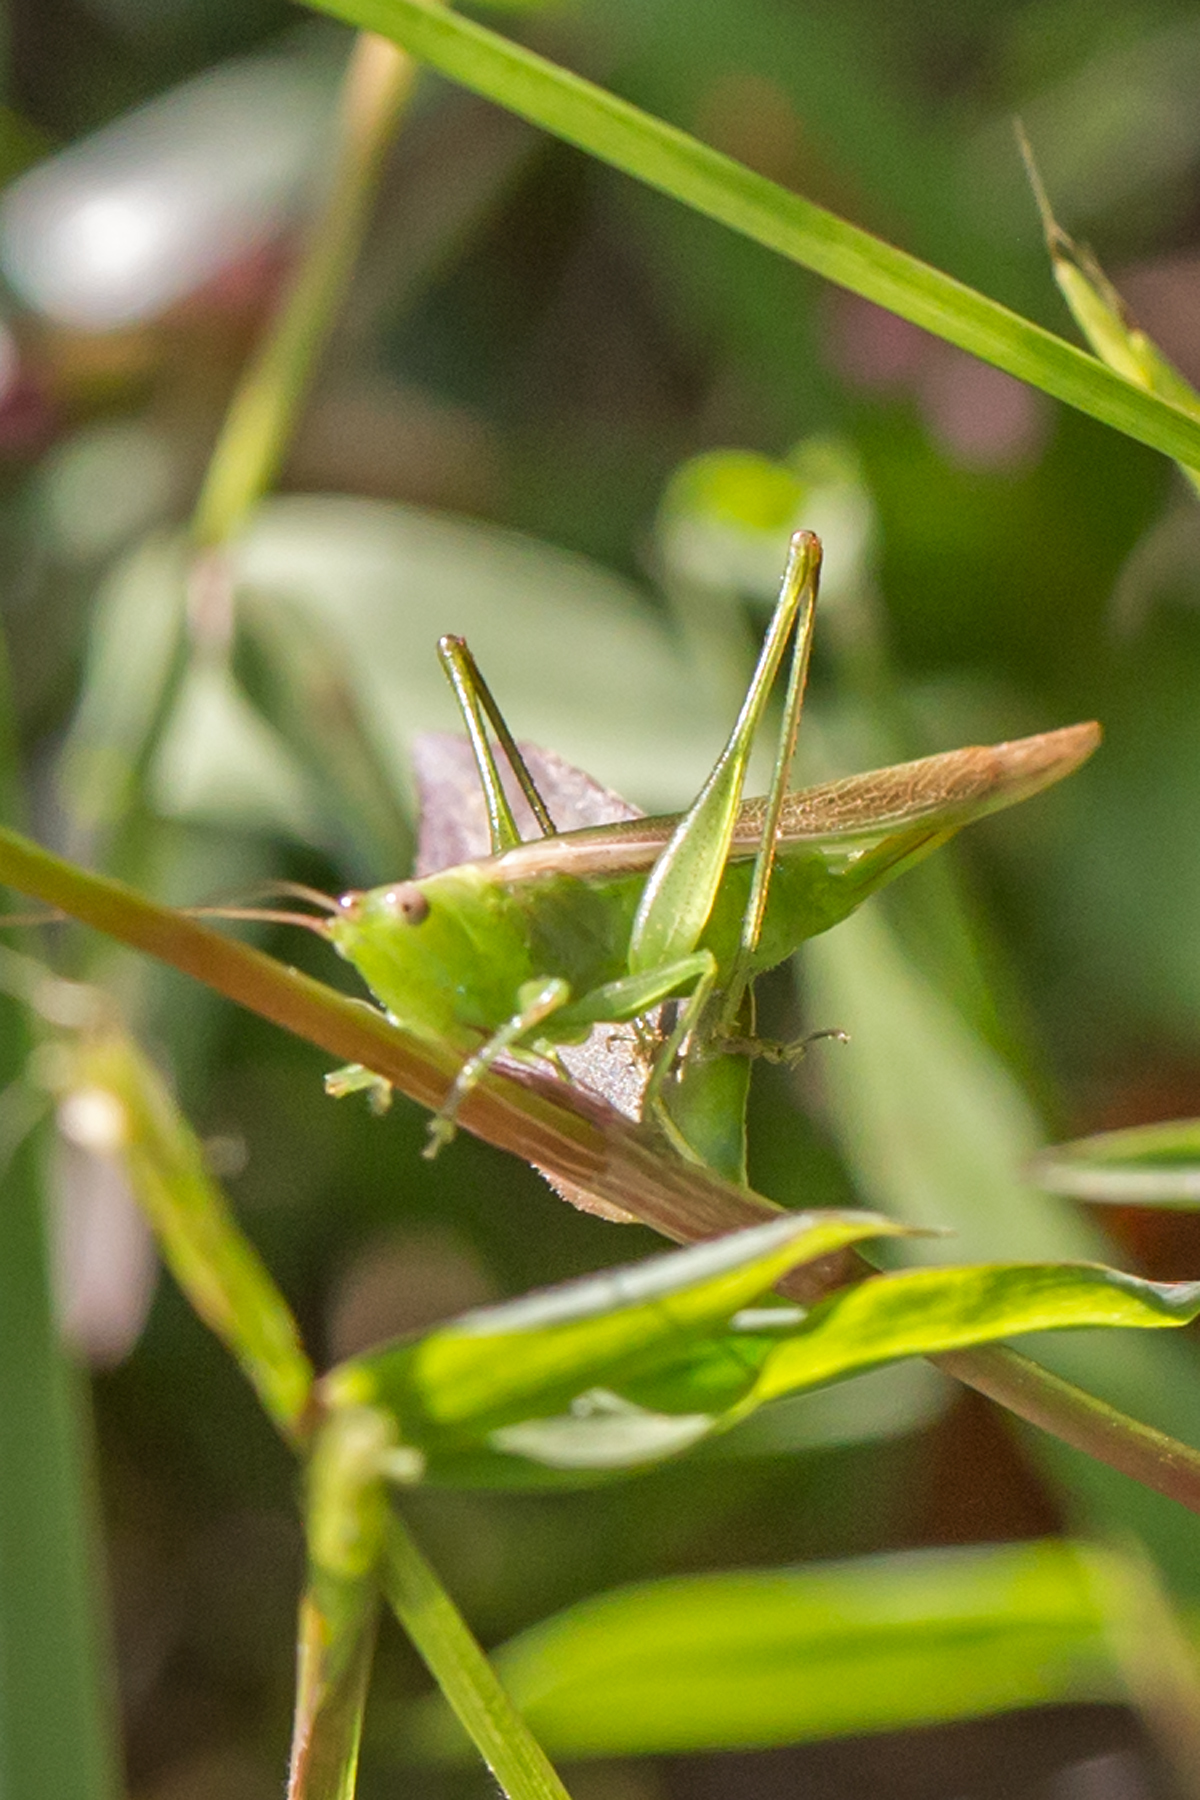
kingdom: Animalia
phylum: Arthropoda
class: Insecta
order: Orthoptera
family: Tettigoniidae
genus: Conocephalus
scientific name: Conocephalus fasciatus
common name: Slender meadow katydid
